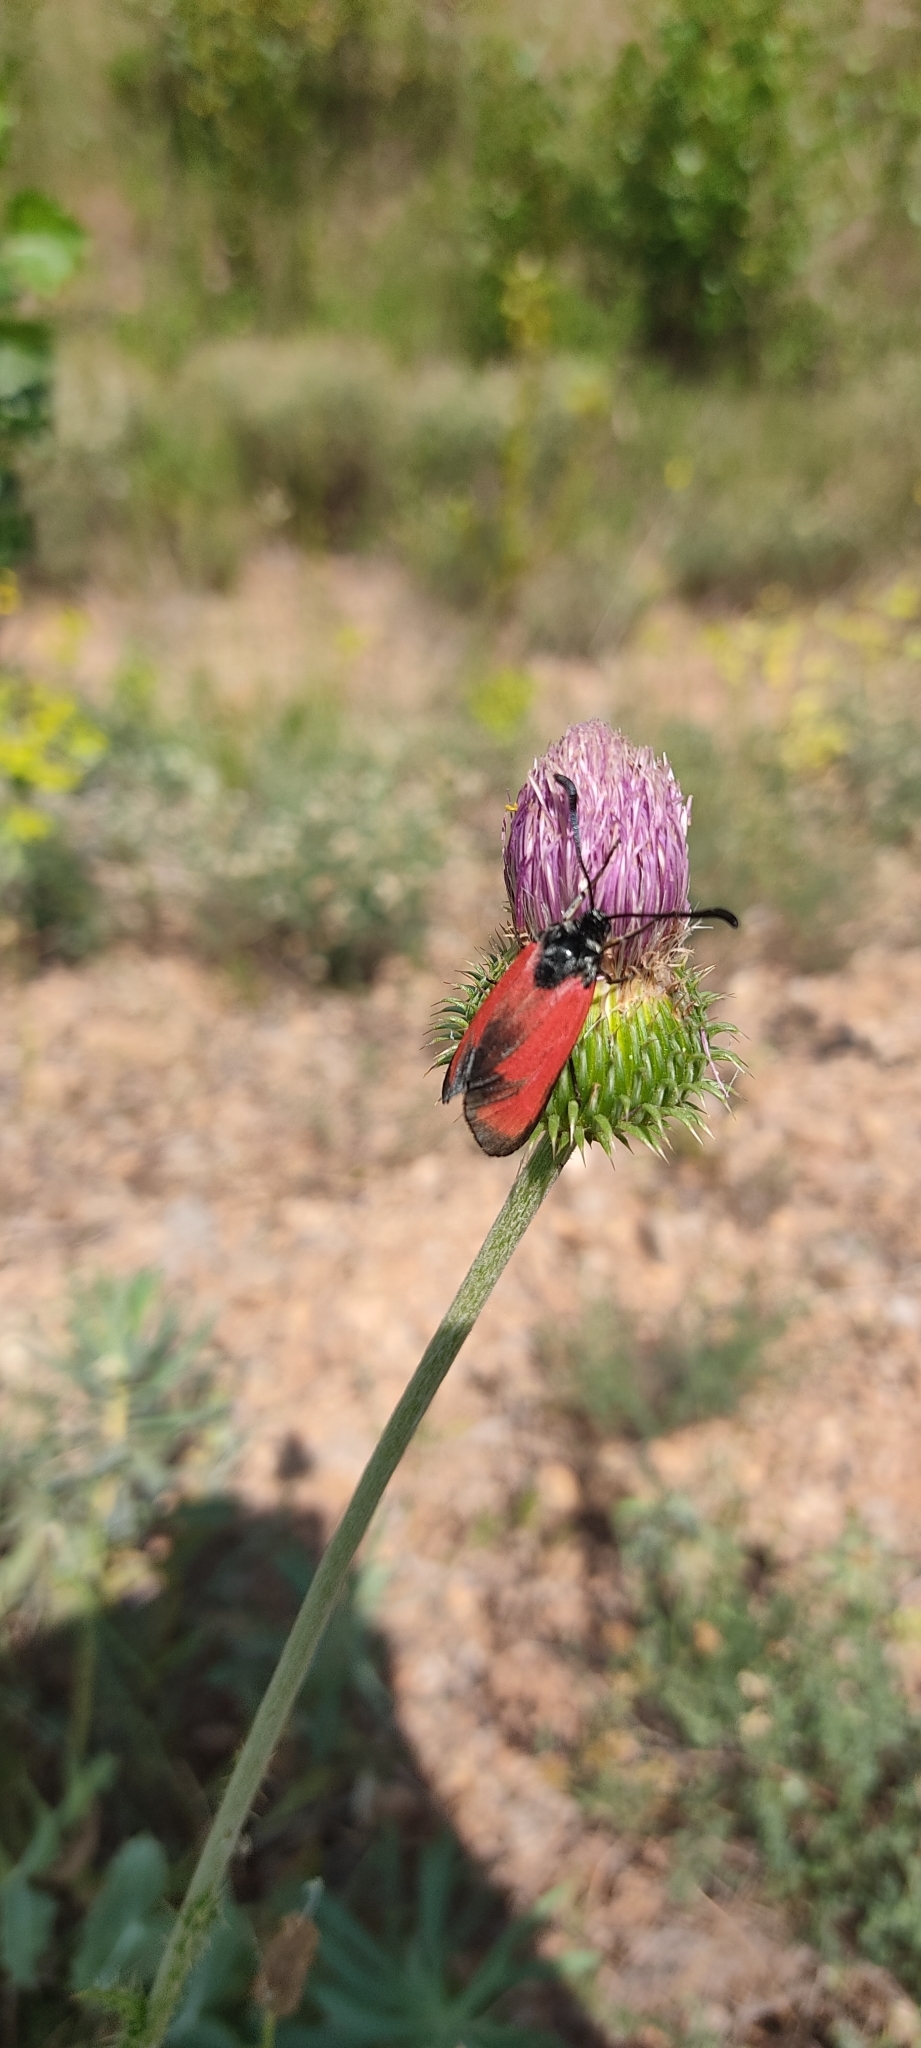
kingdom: Animalia
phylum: Arthropoda
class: Insecta
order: Lepidoptera
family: Zygaenidae
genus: Zygaena
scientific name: Zygaena erythrus
